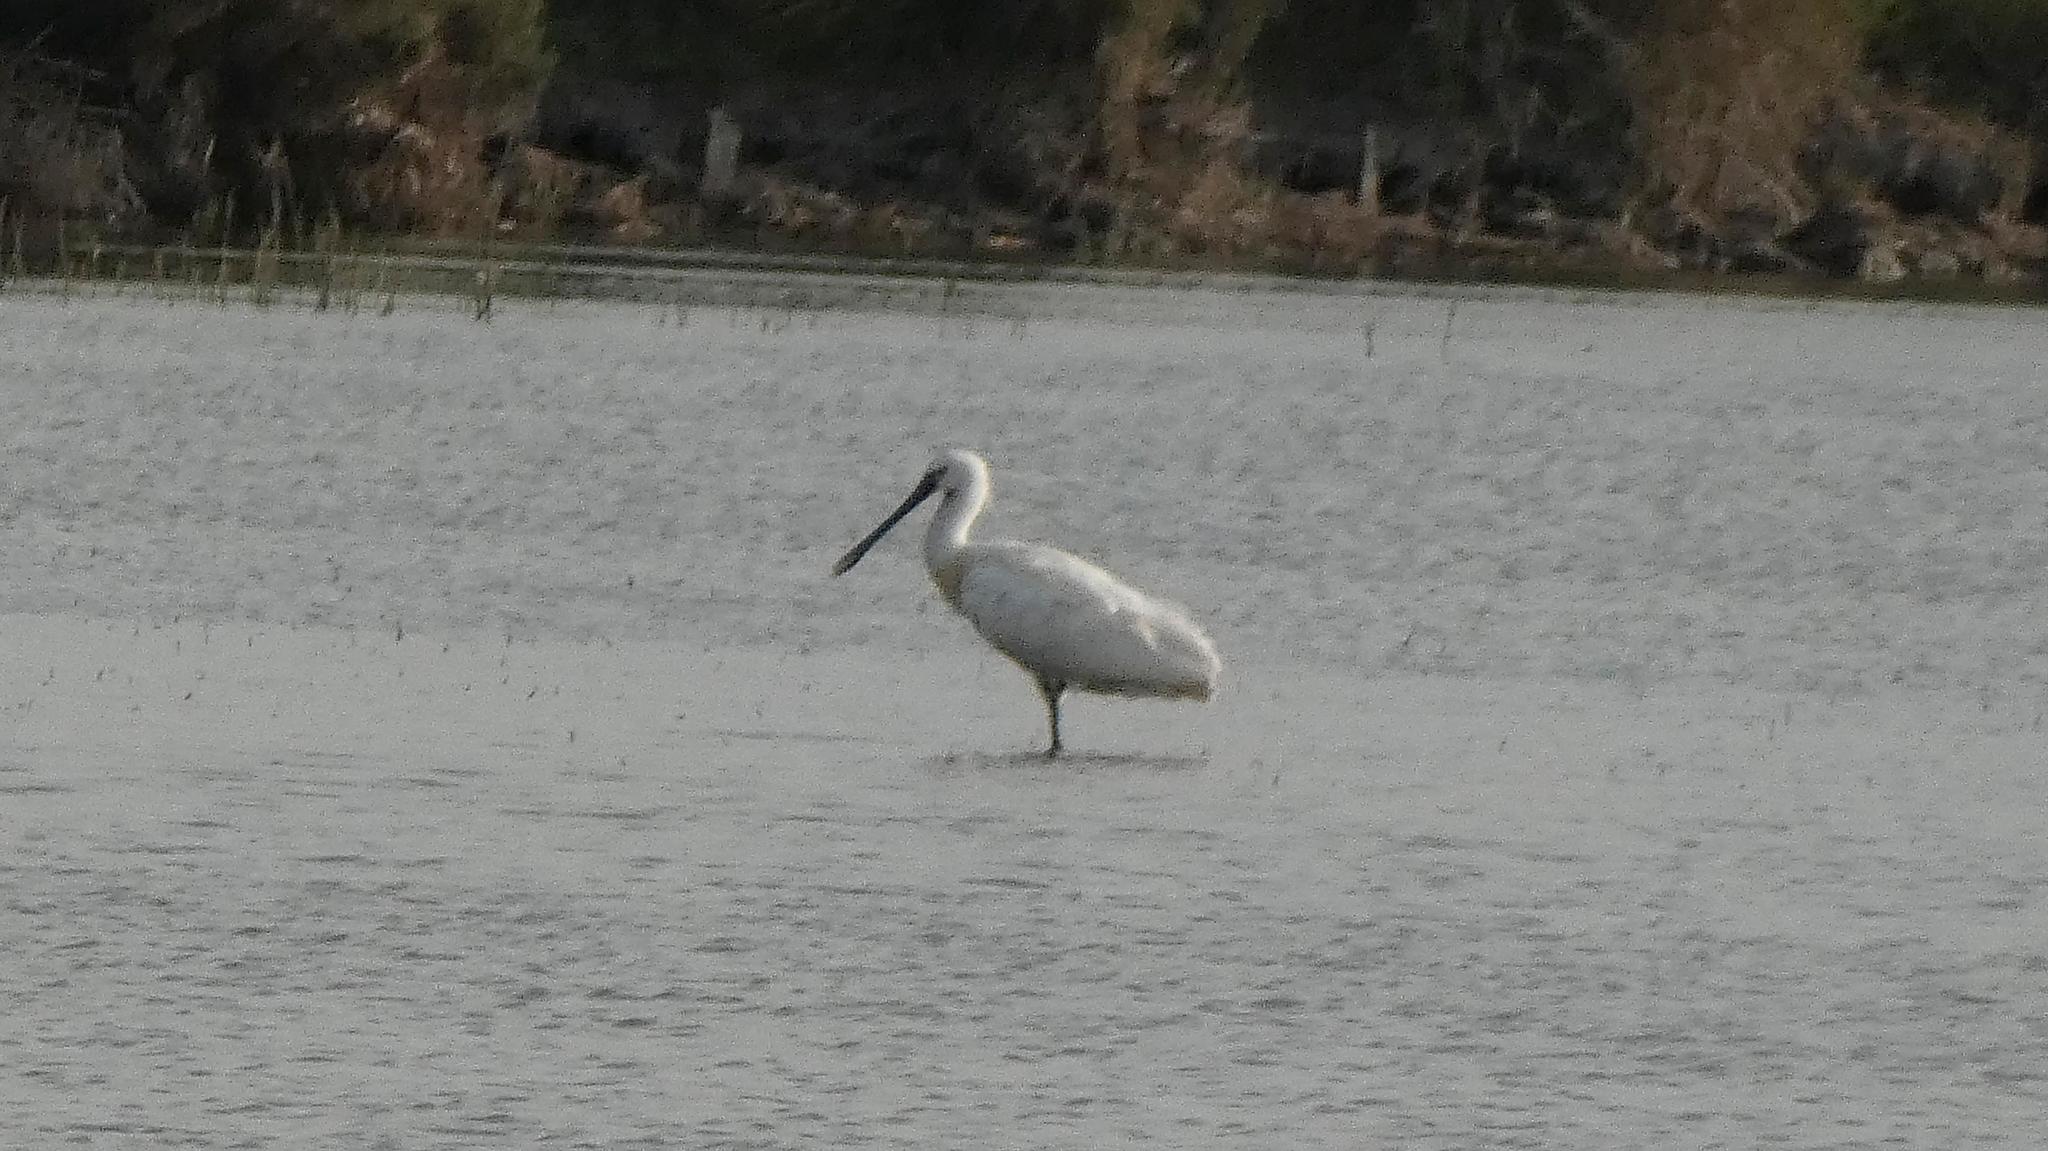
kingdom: Animalia
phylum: Chordata
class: Aves
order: Pelecaniformes
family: Threskiornithidae
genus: Platalea
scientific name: Platalea leucorodia
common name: Eurasian spoonbill
